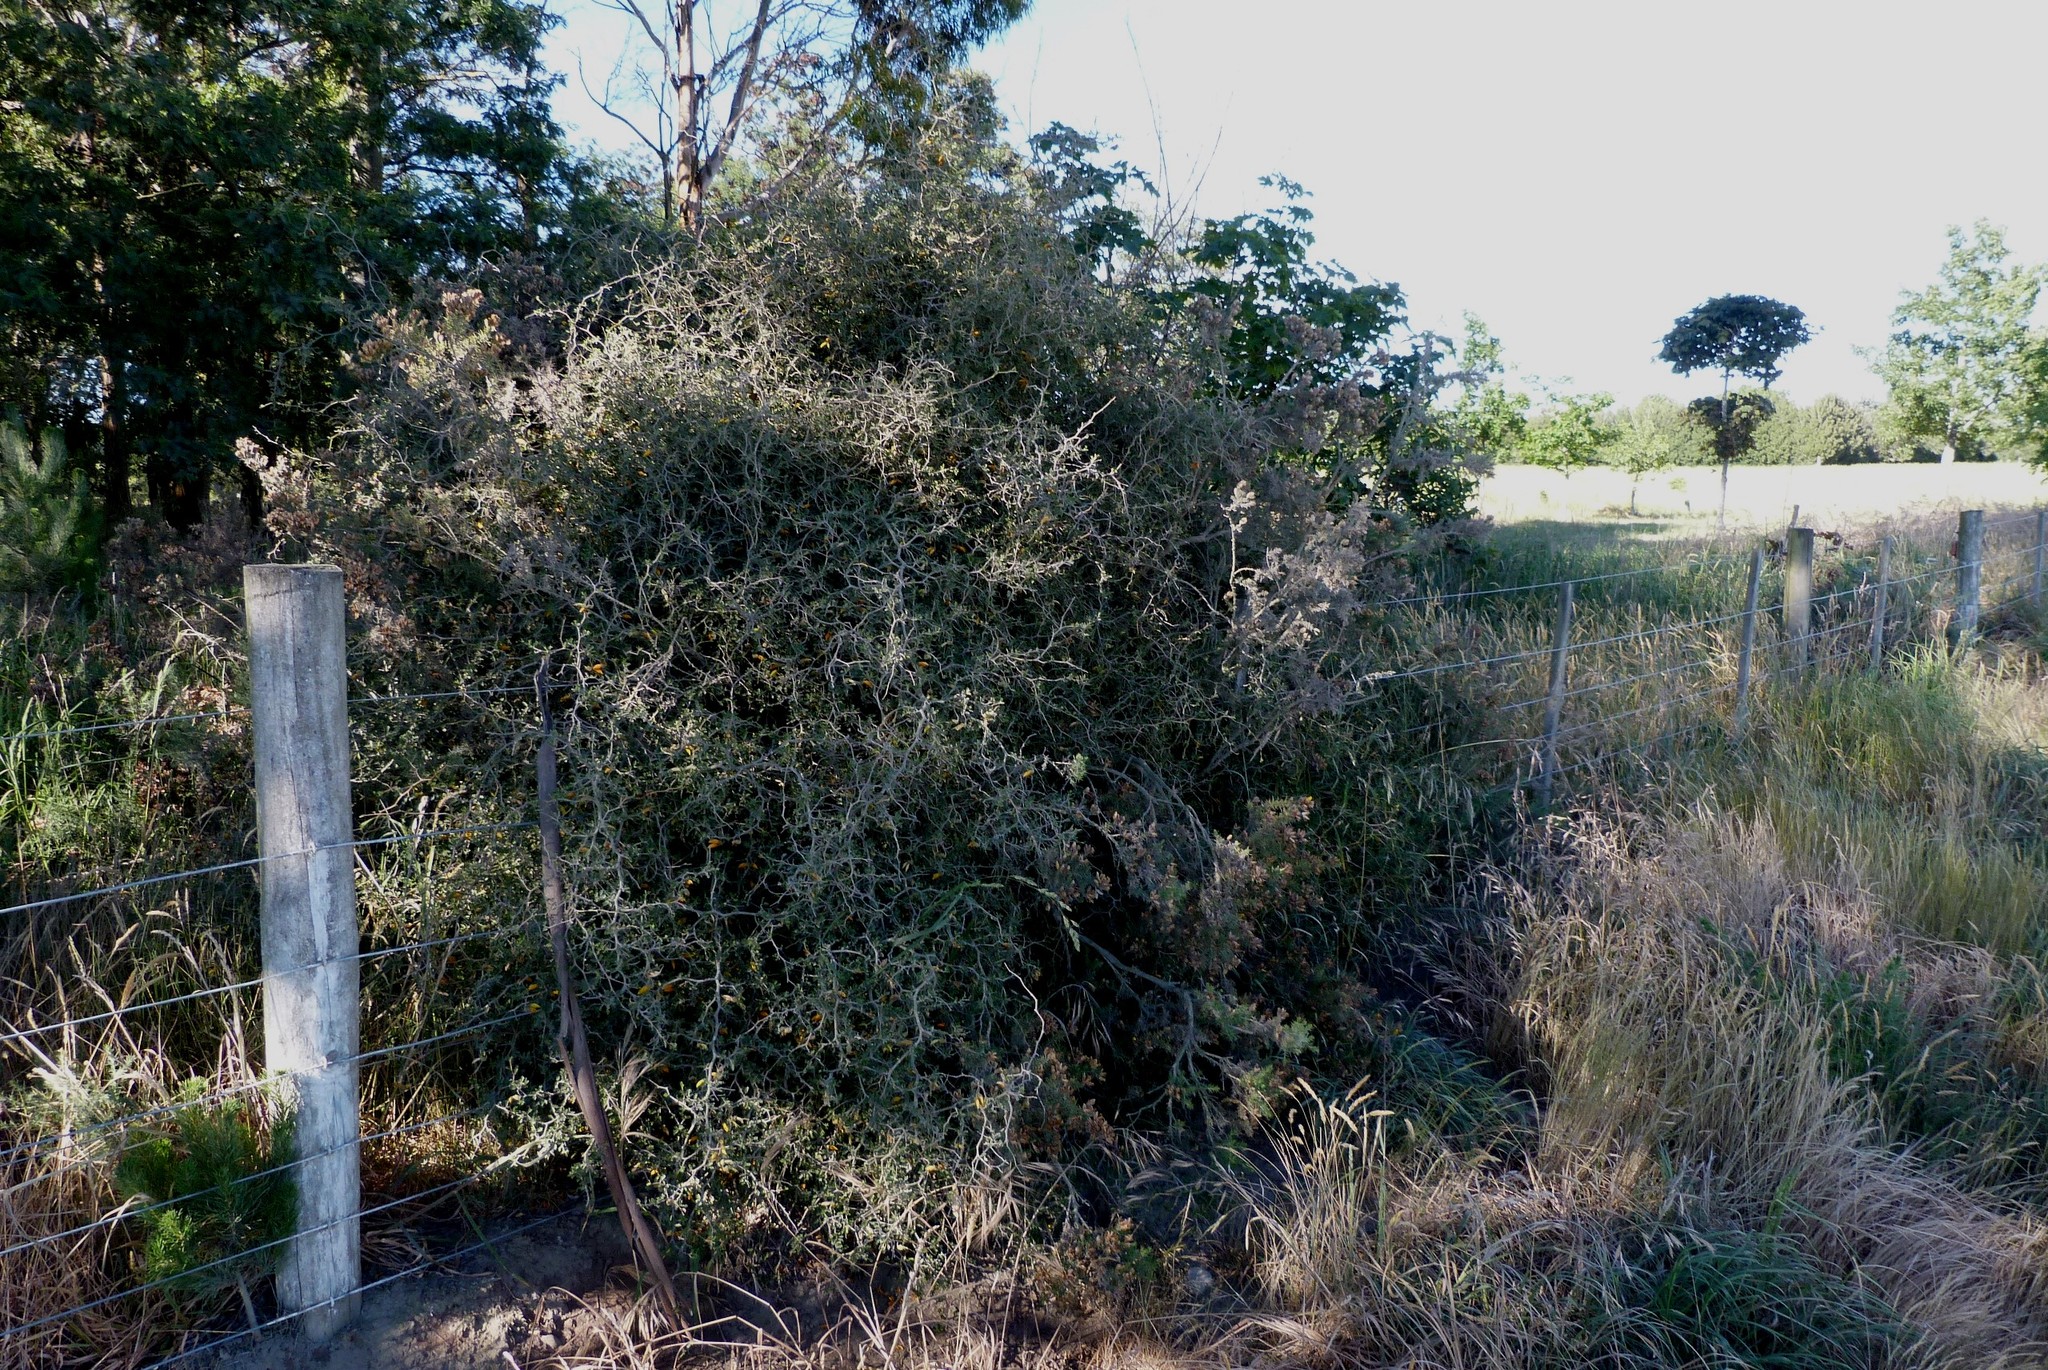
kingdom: Plantae
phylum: Tracheophyta
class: Magnoliopsida
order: Fabales
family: Fabaceae
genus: Sophora
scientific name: Sophora prostrata
